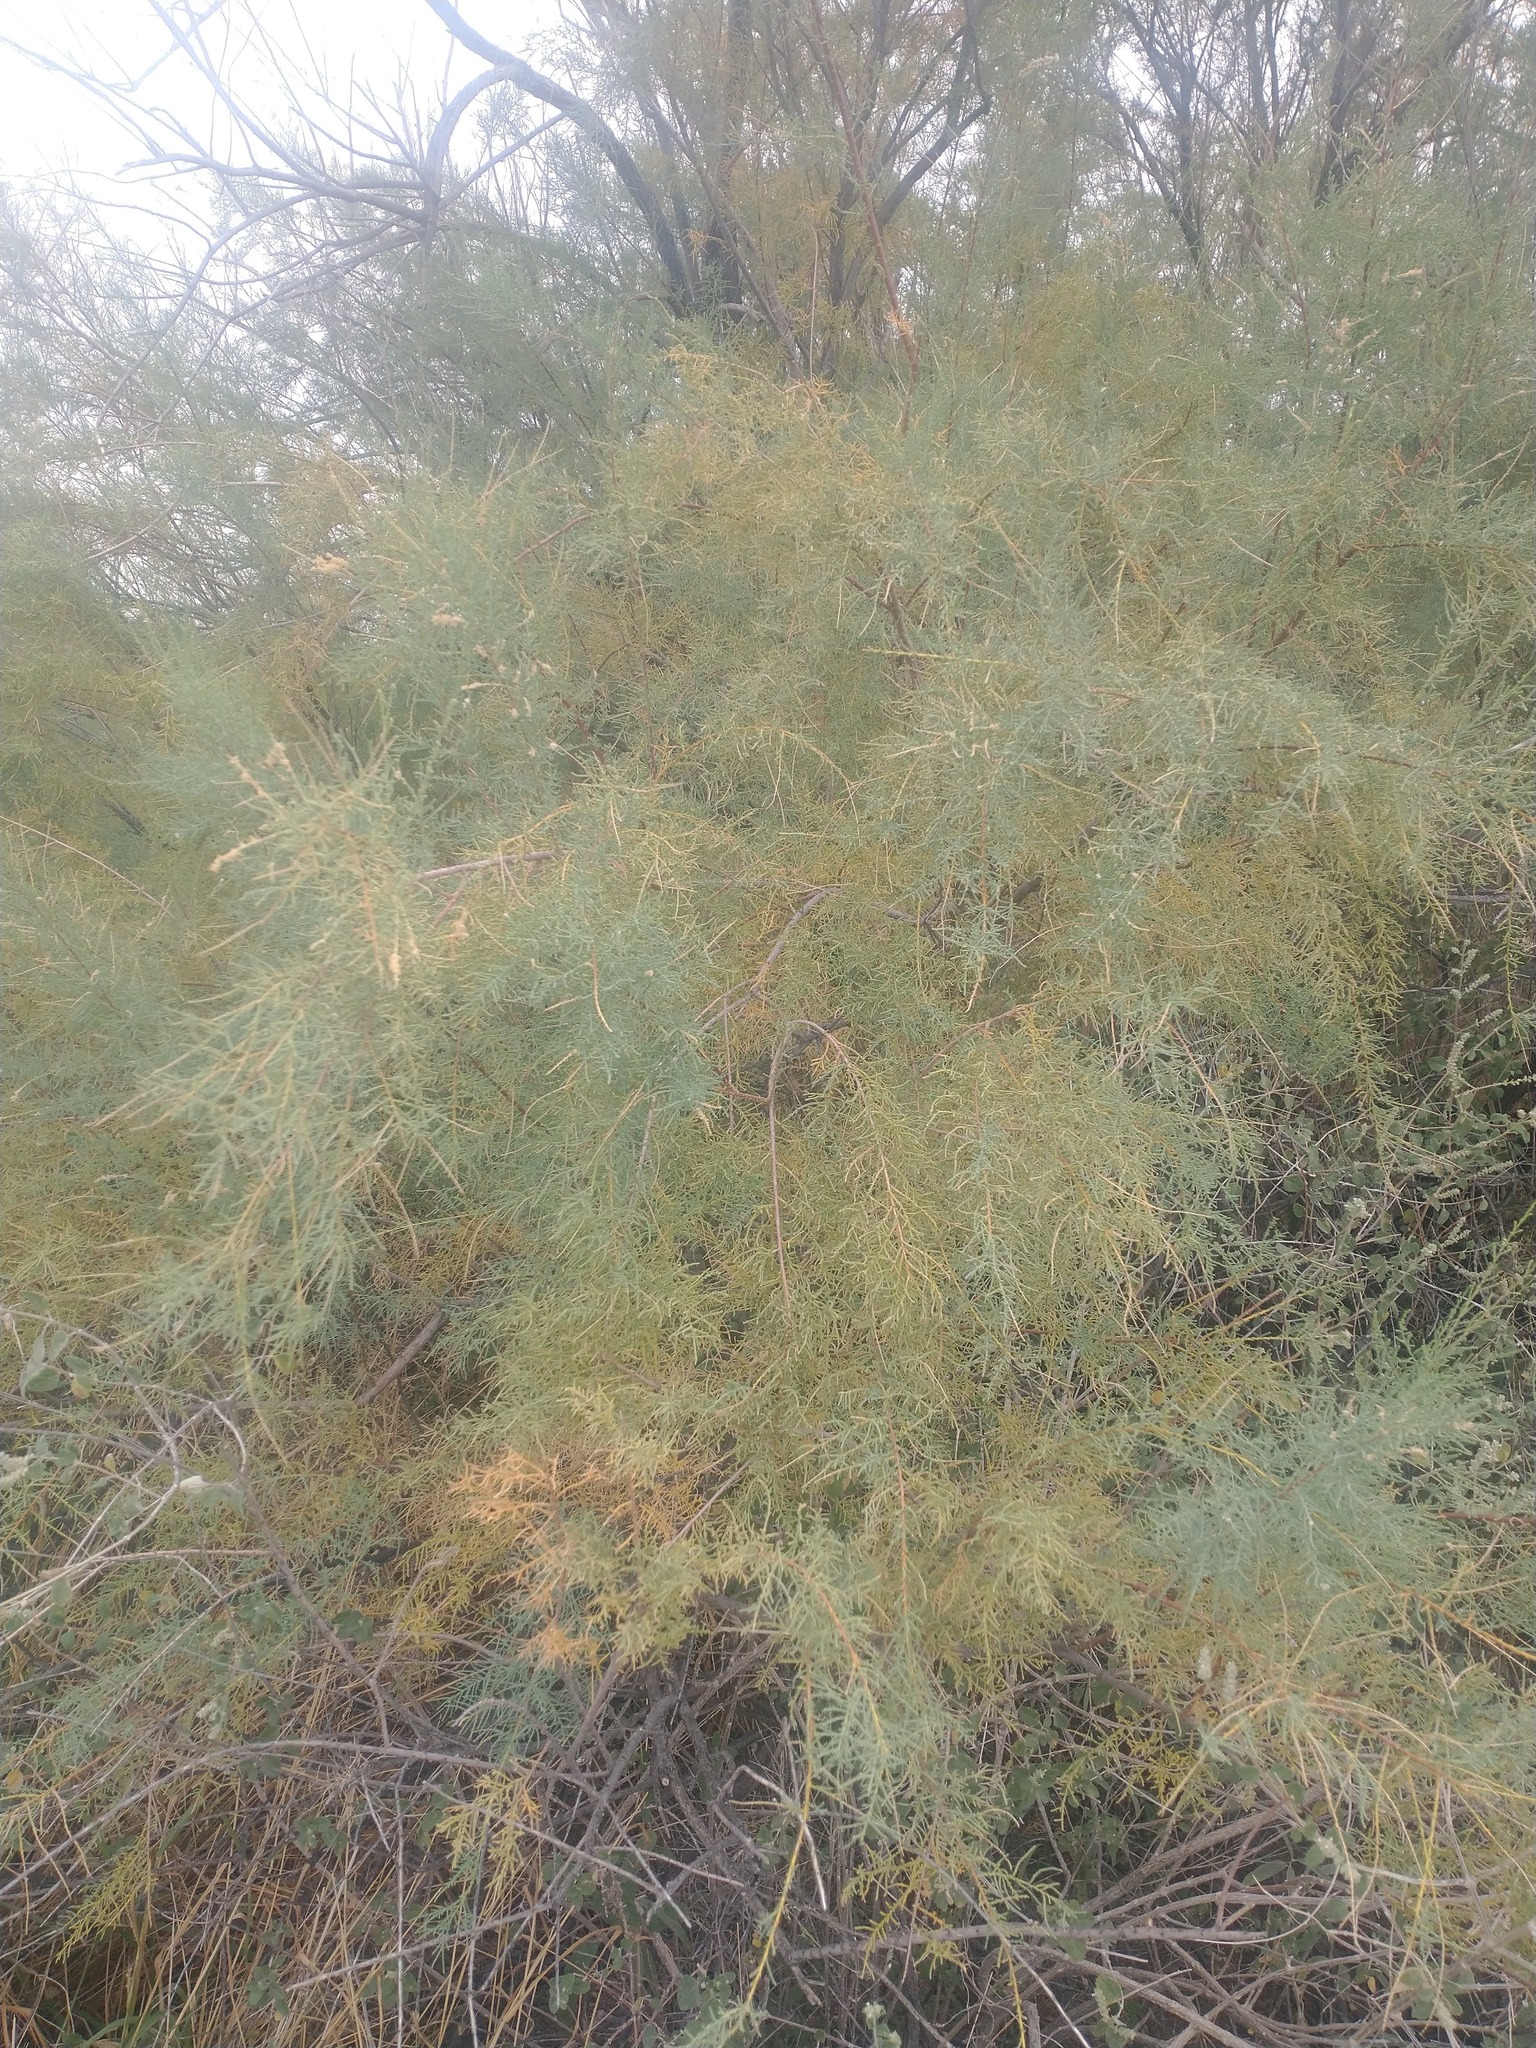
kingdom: Plantae
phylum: Tracheophyta
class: Magnoliopsida
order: Caryophyllales
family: Tamaricaceae
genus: Tamarix
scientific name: Tamarix ramosissima
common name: Pink tamarisk
